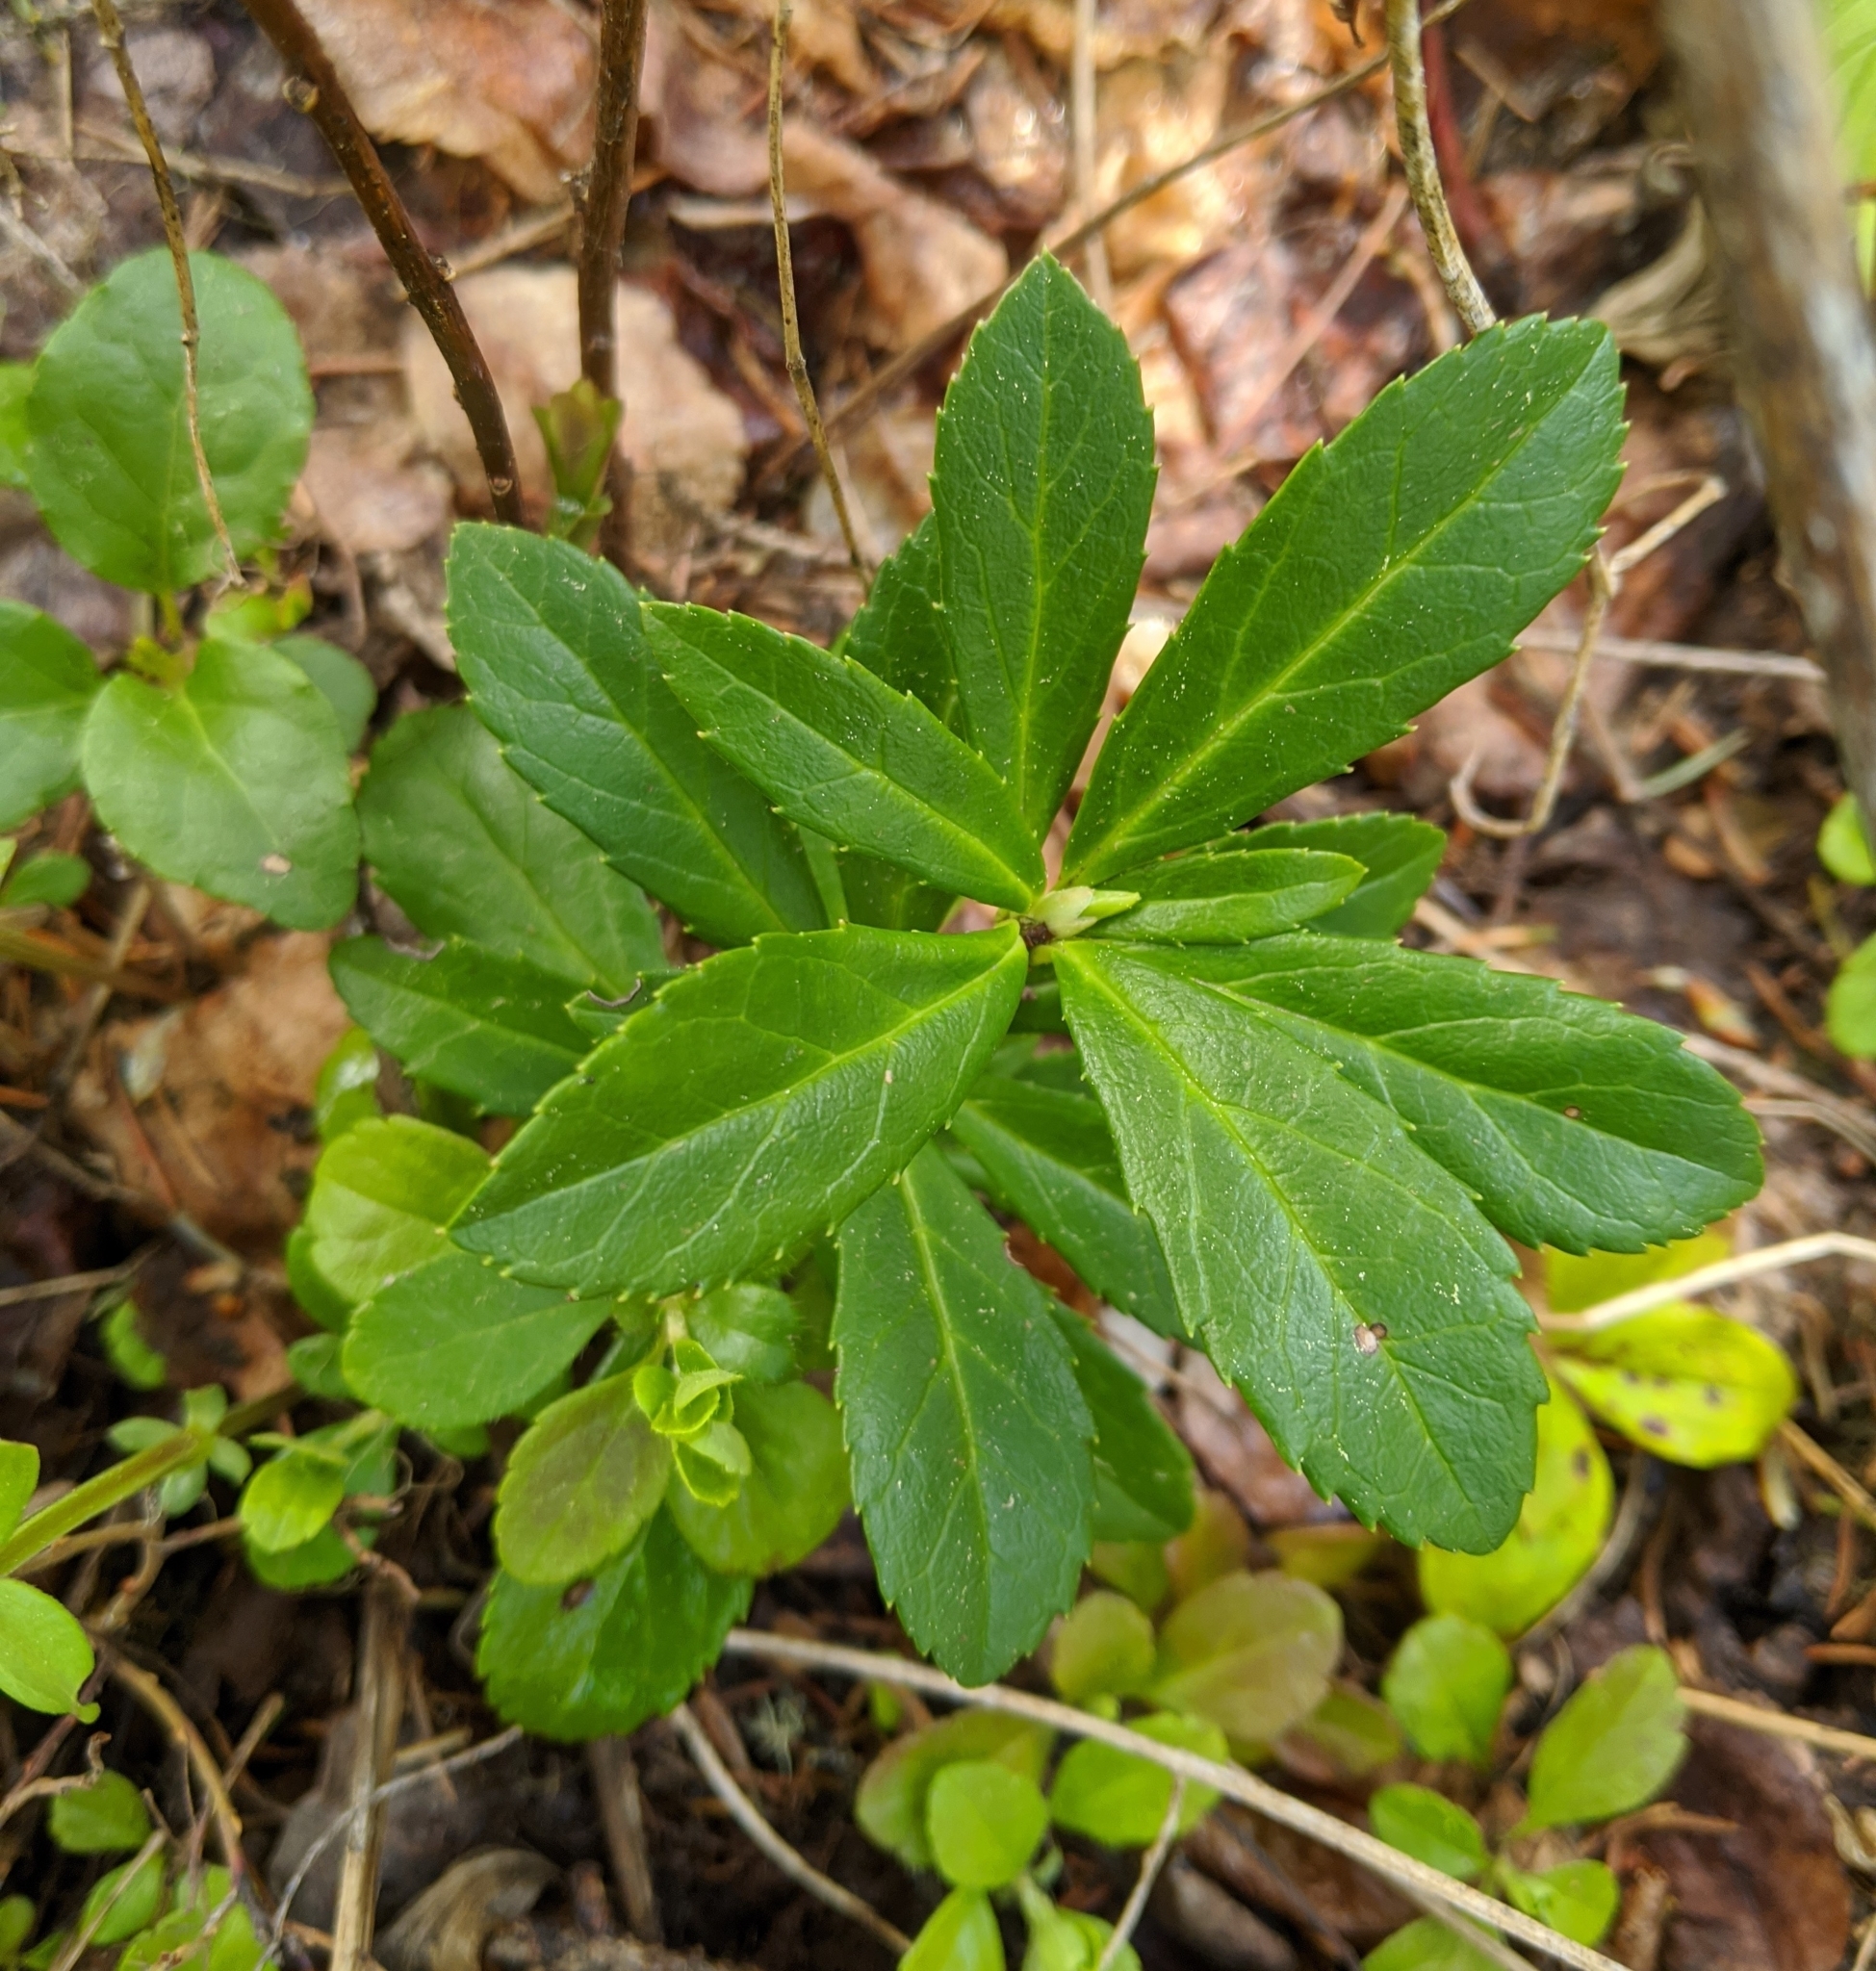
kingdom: Plantae
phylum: Tracheophyta
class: Magnoliopsida
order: Ericales
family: Ericaceae
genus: Chimaphila
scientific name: Chimaphila umbellata
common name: Pipsissewa
